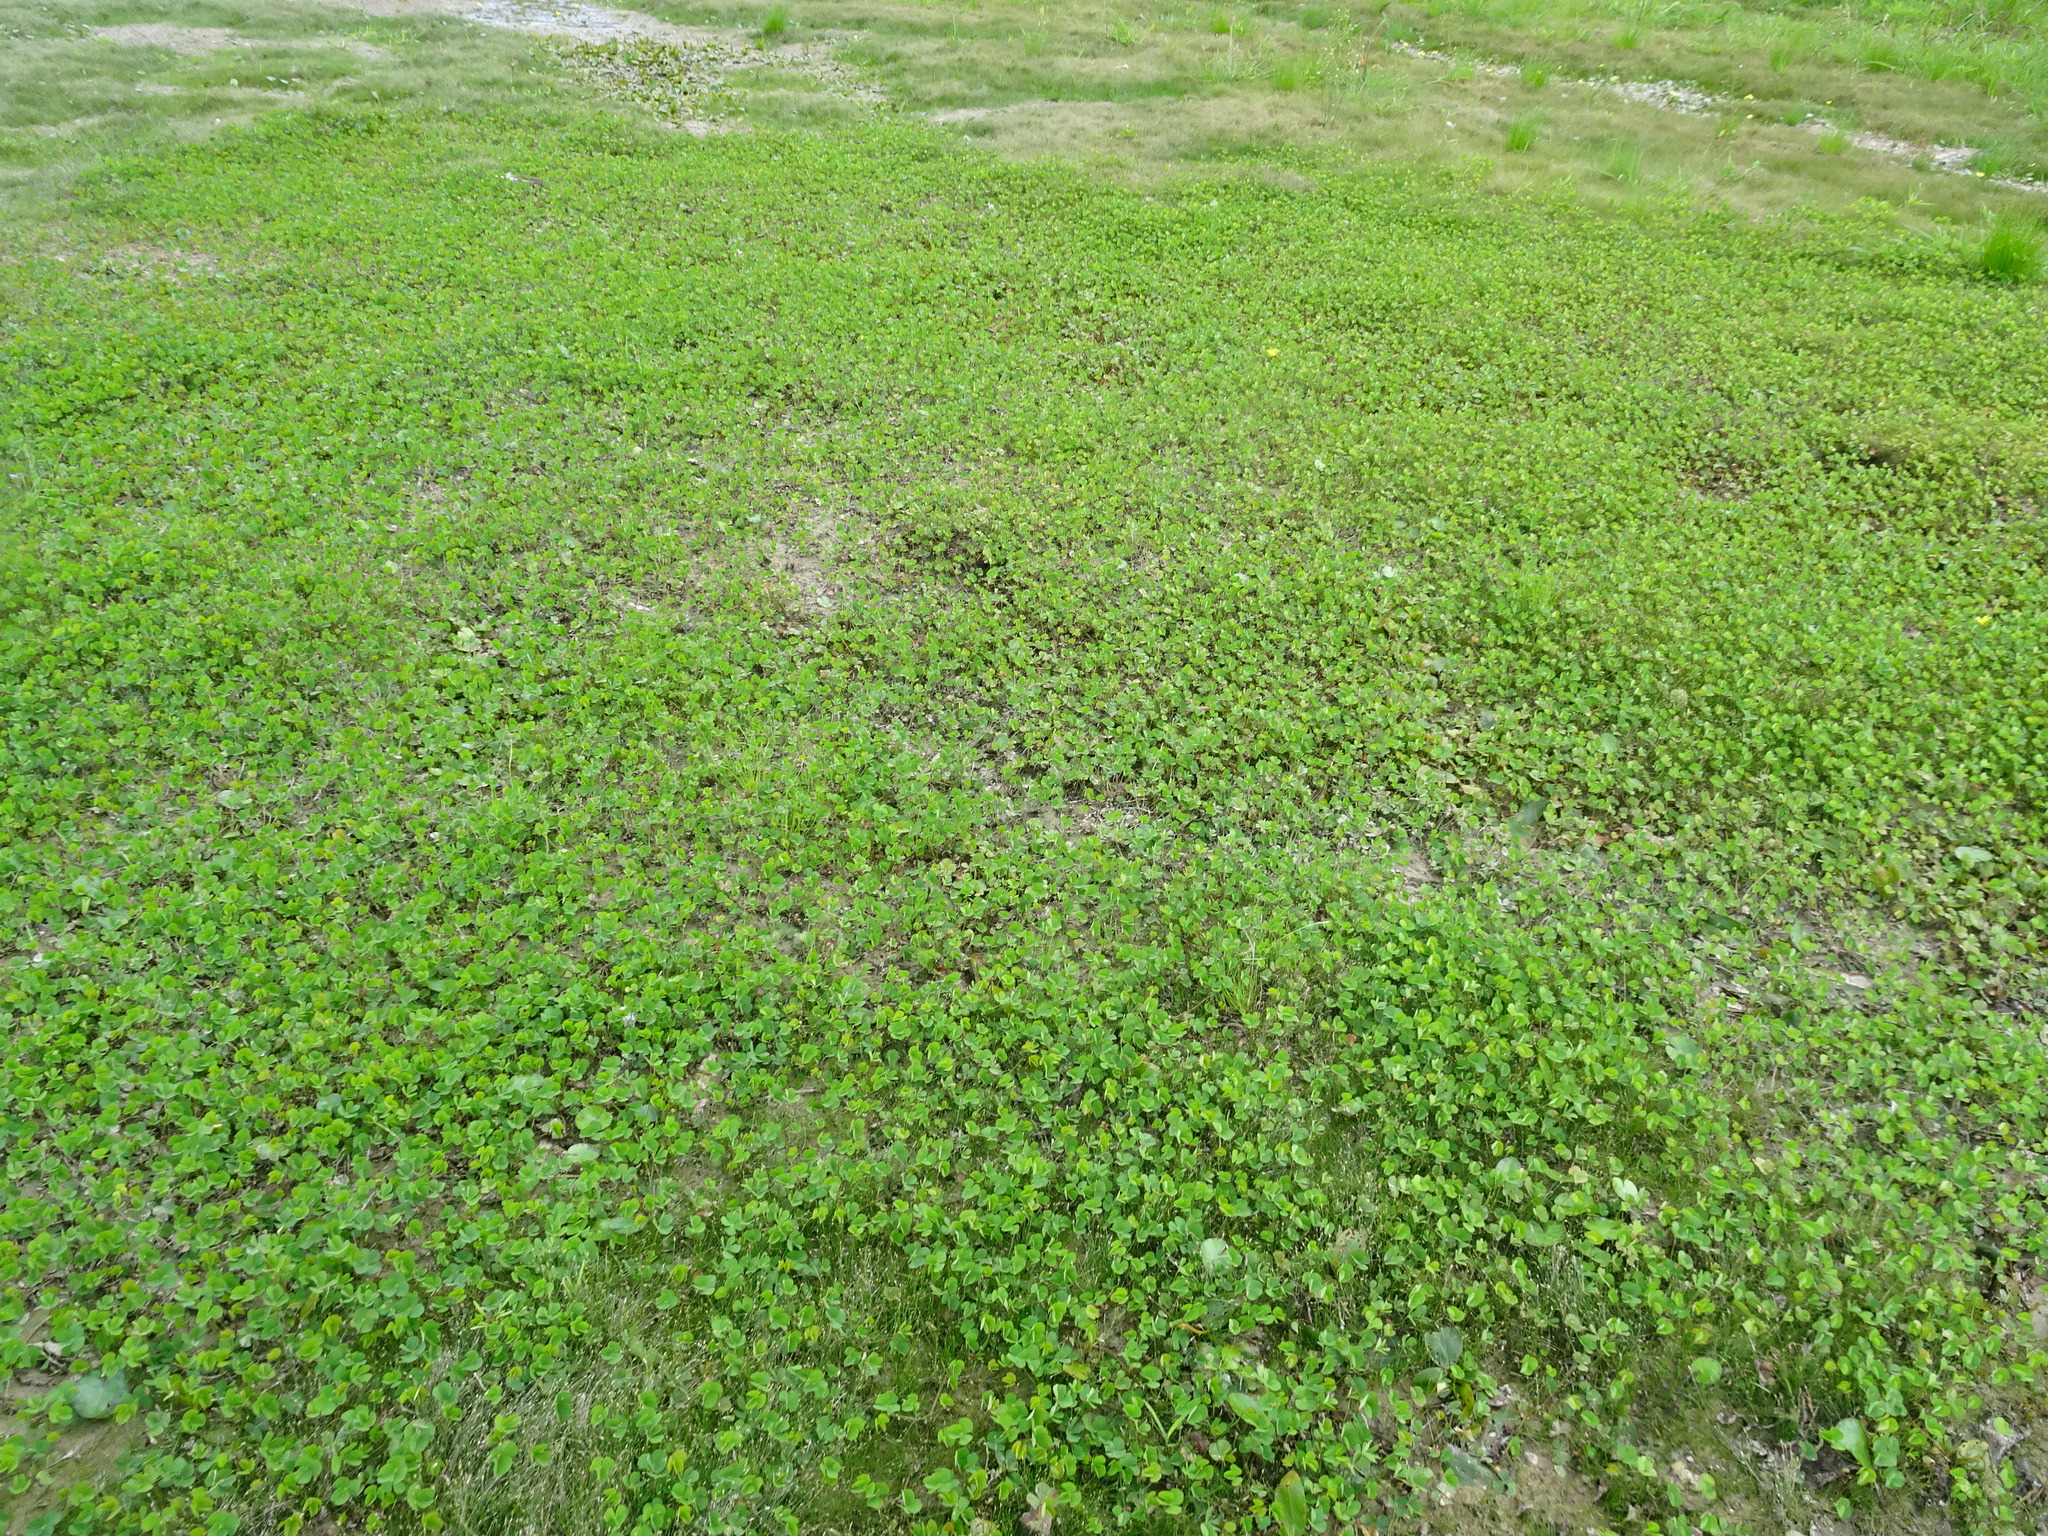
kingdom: Plantae
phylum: Tracheophyta
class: Polypodiopsida
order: Salviniales
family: Marsileaceae
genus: Marsilea
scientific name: Marsilea quadrifolia
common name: Water shamrock
